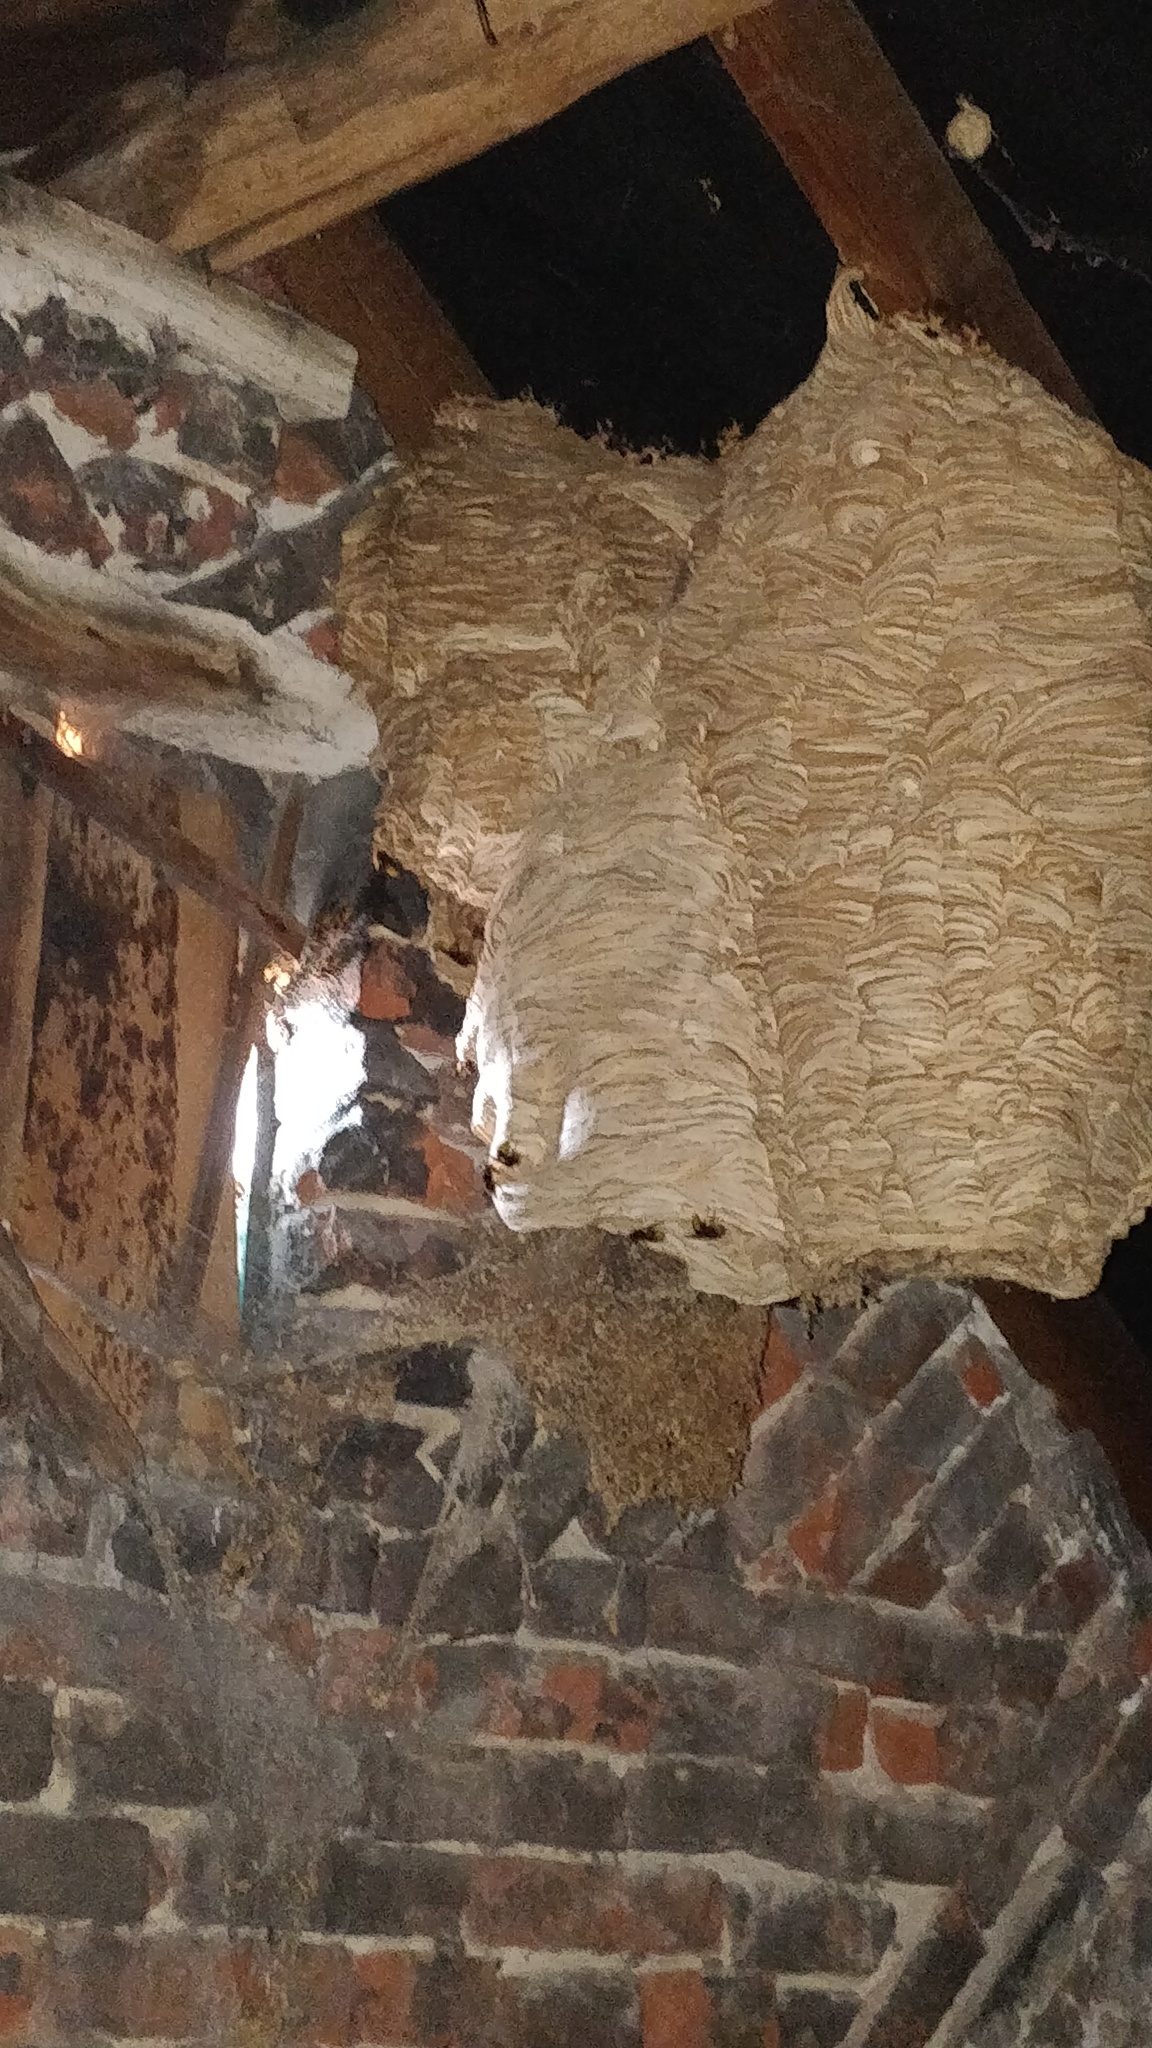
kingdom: Animalia
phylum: Arthropoda
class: Insecta
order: Hymenoptera
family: Vespidae
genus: Vespa
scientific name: Vespa crabro
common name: Hornet
